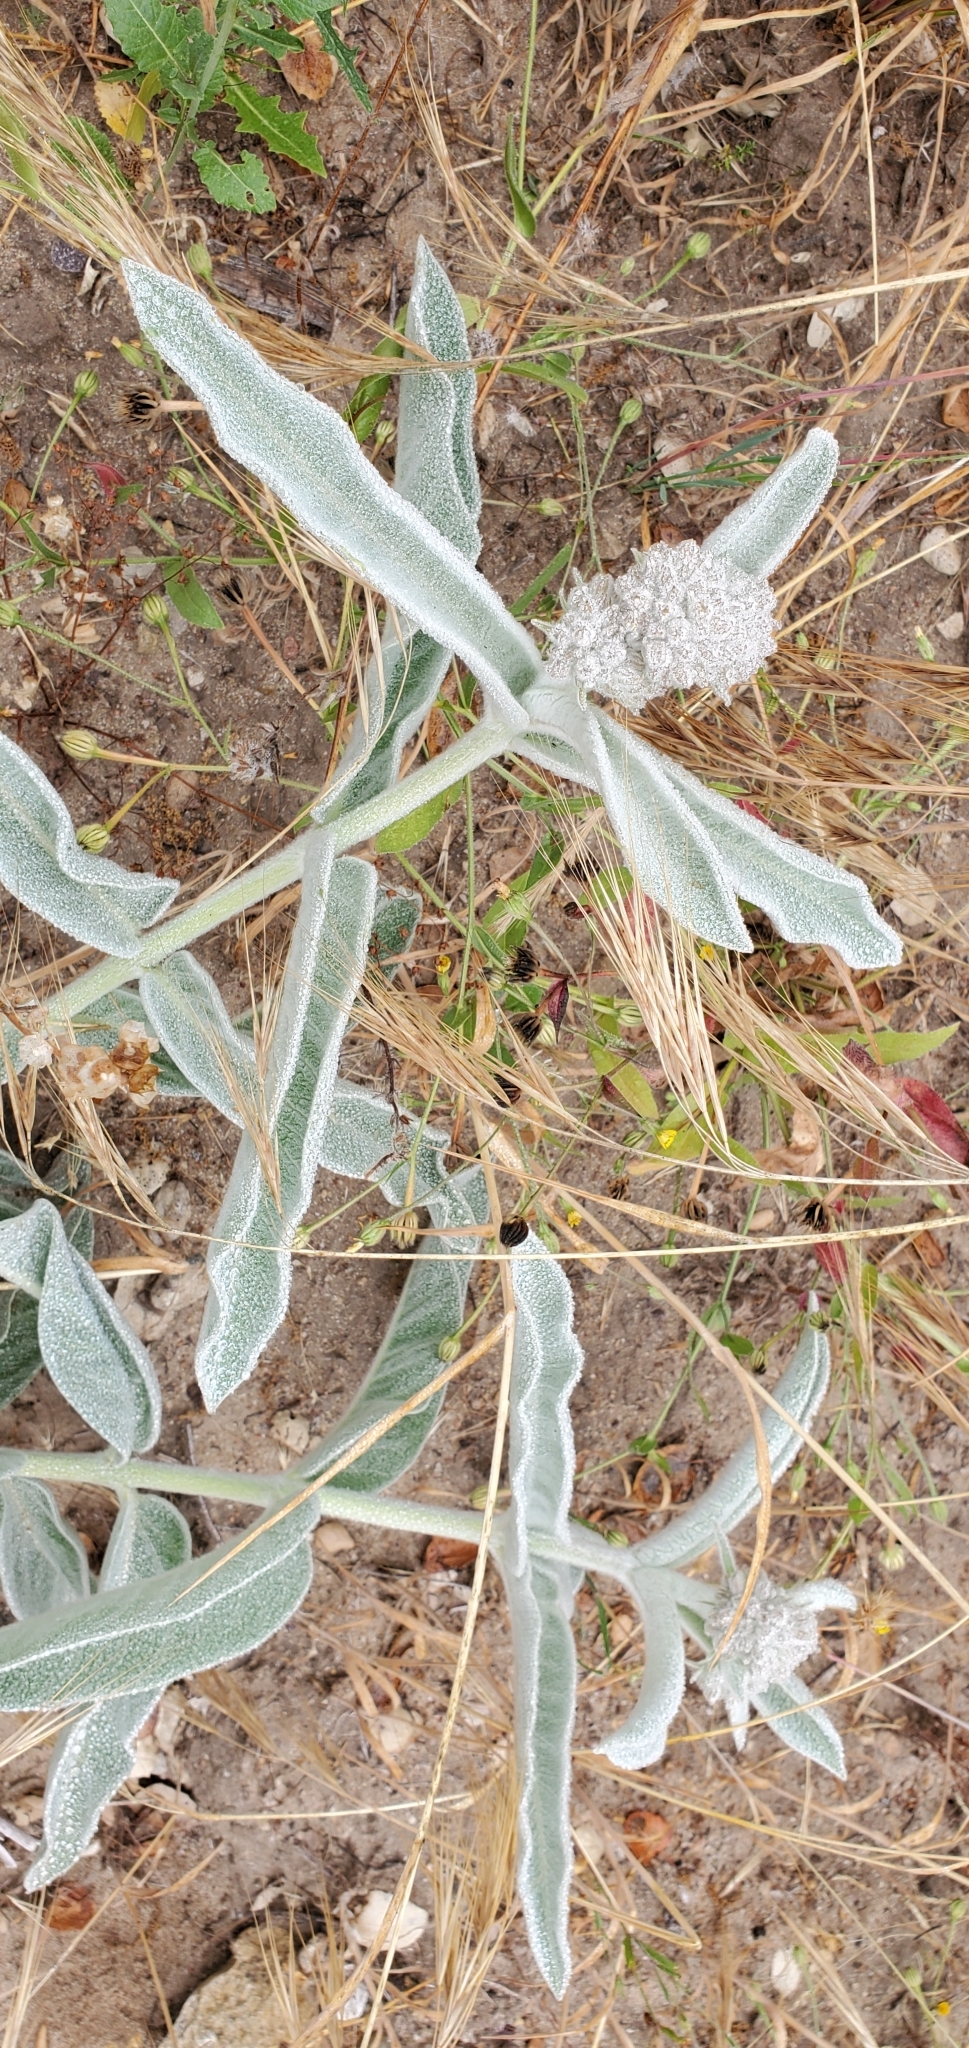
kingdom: Plantae
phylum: Tracheophyta
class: Magnoliopsida
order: Gentianales
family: Apocynaceae
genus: Asclepias
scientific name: Asclepias eriocarpa
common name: Indian milkweed
